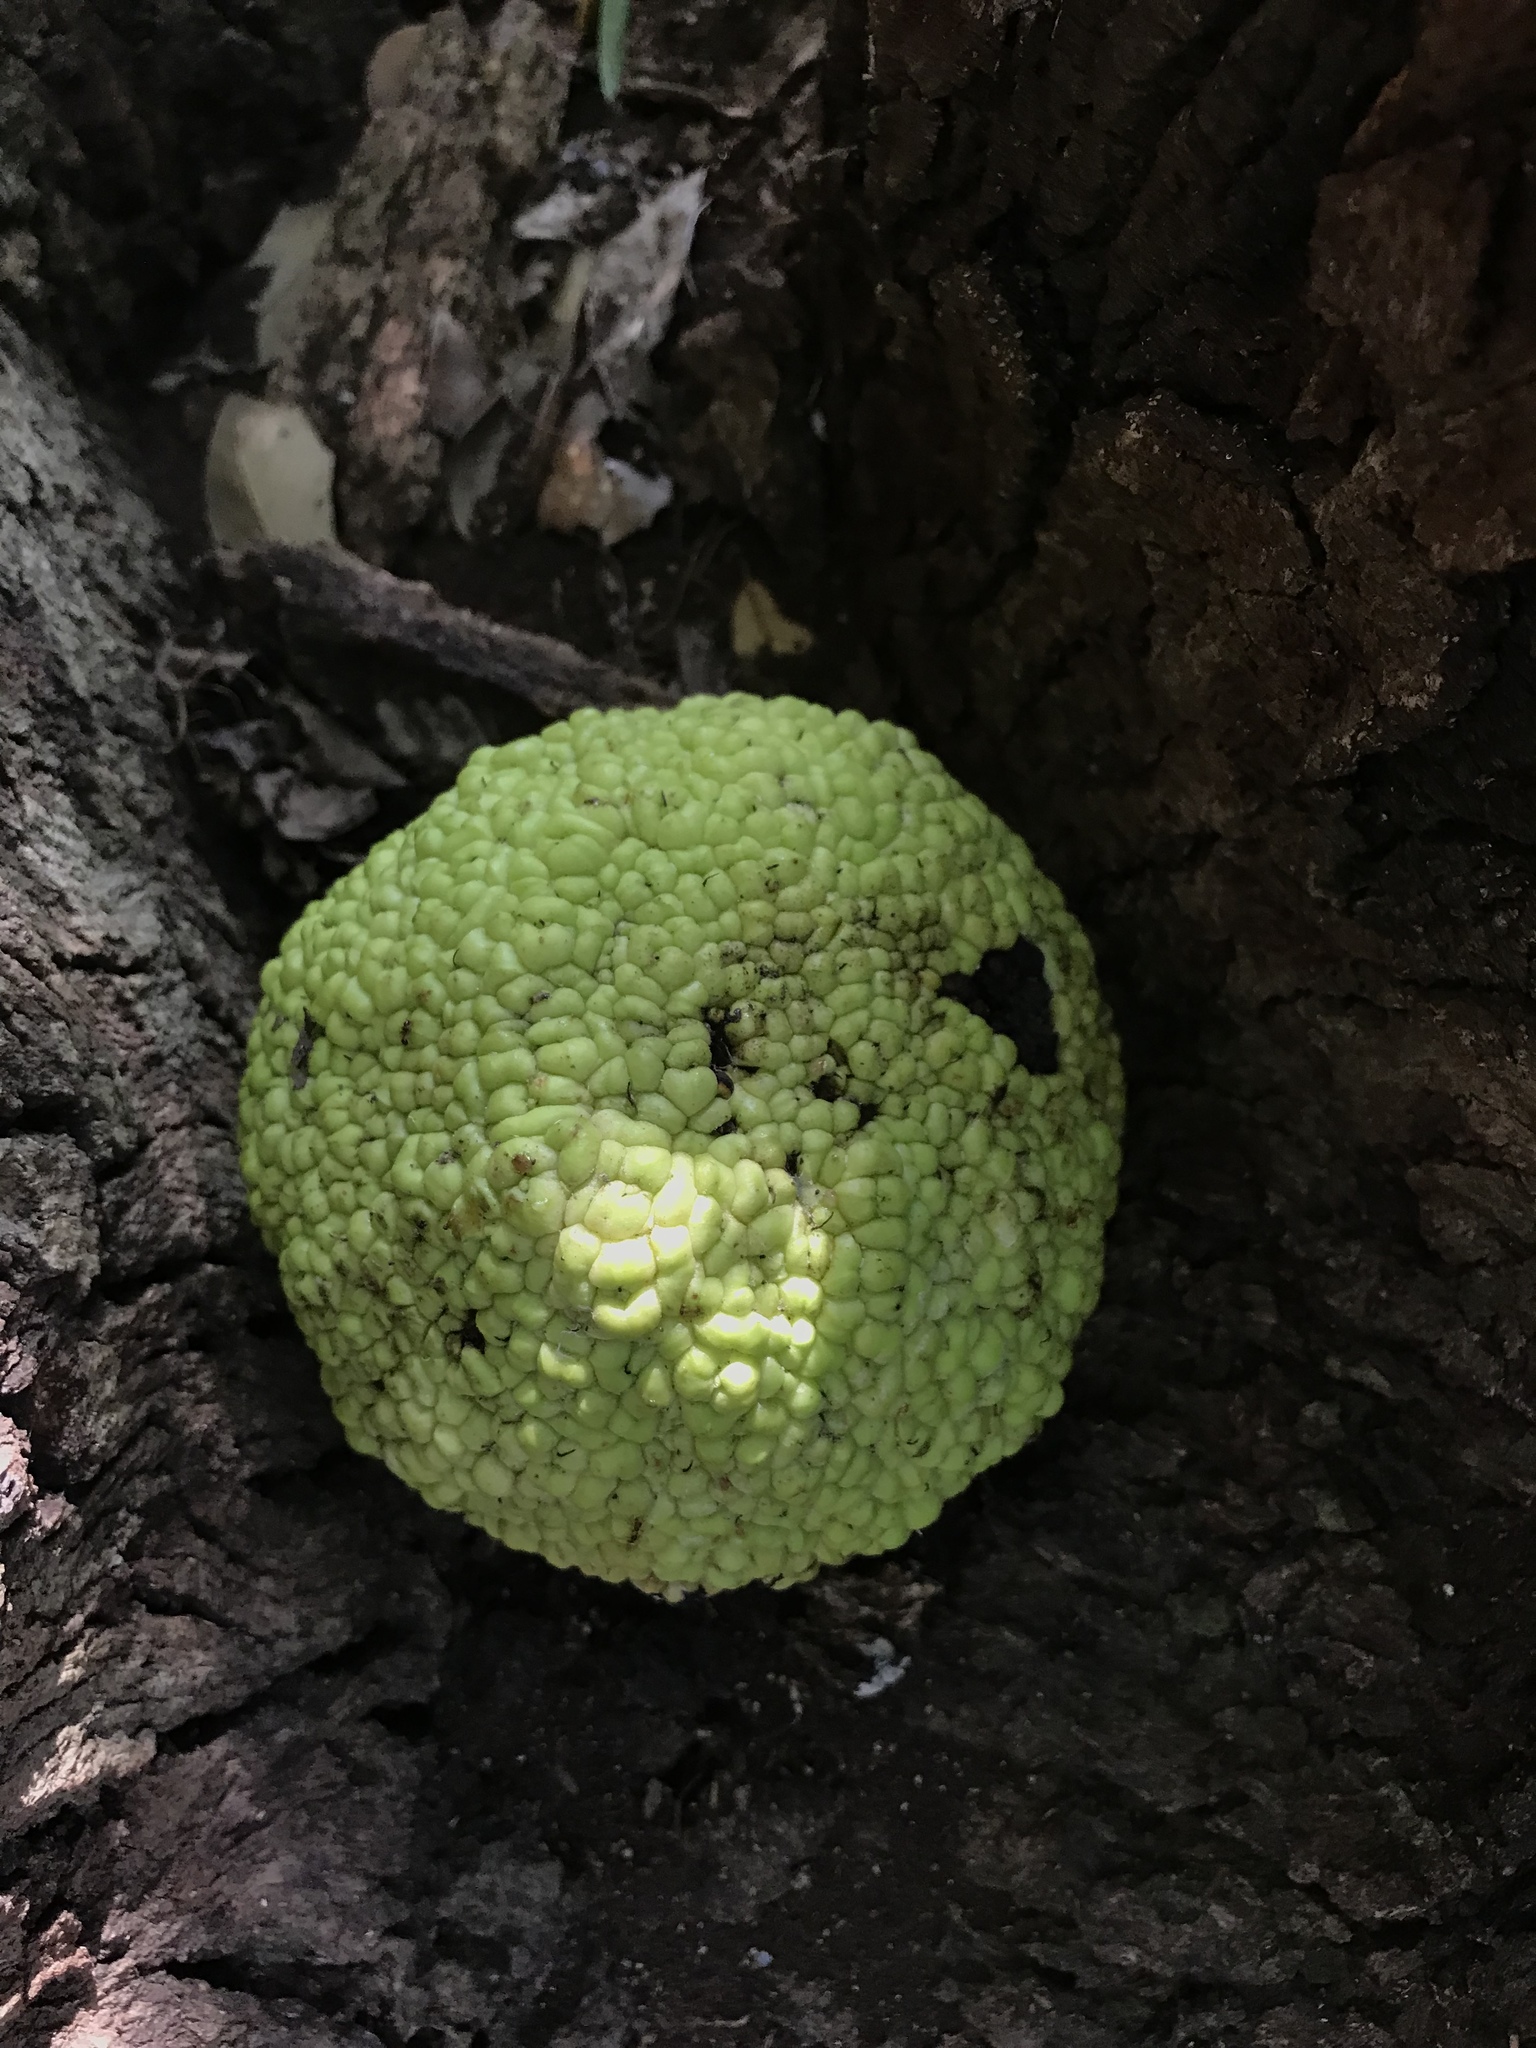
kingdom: Plantae
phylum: Tracheophyta
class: Magnoliopsida
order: Rosales
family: Moraceae
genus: Maclura
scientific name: Maclura pomifera
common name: Osage-orange
